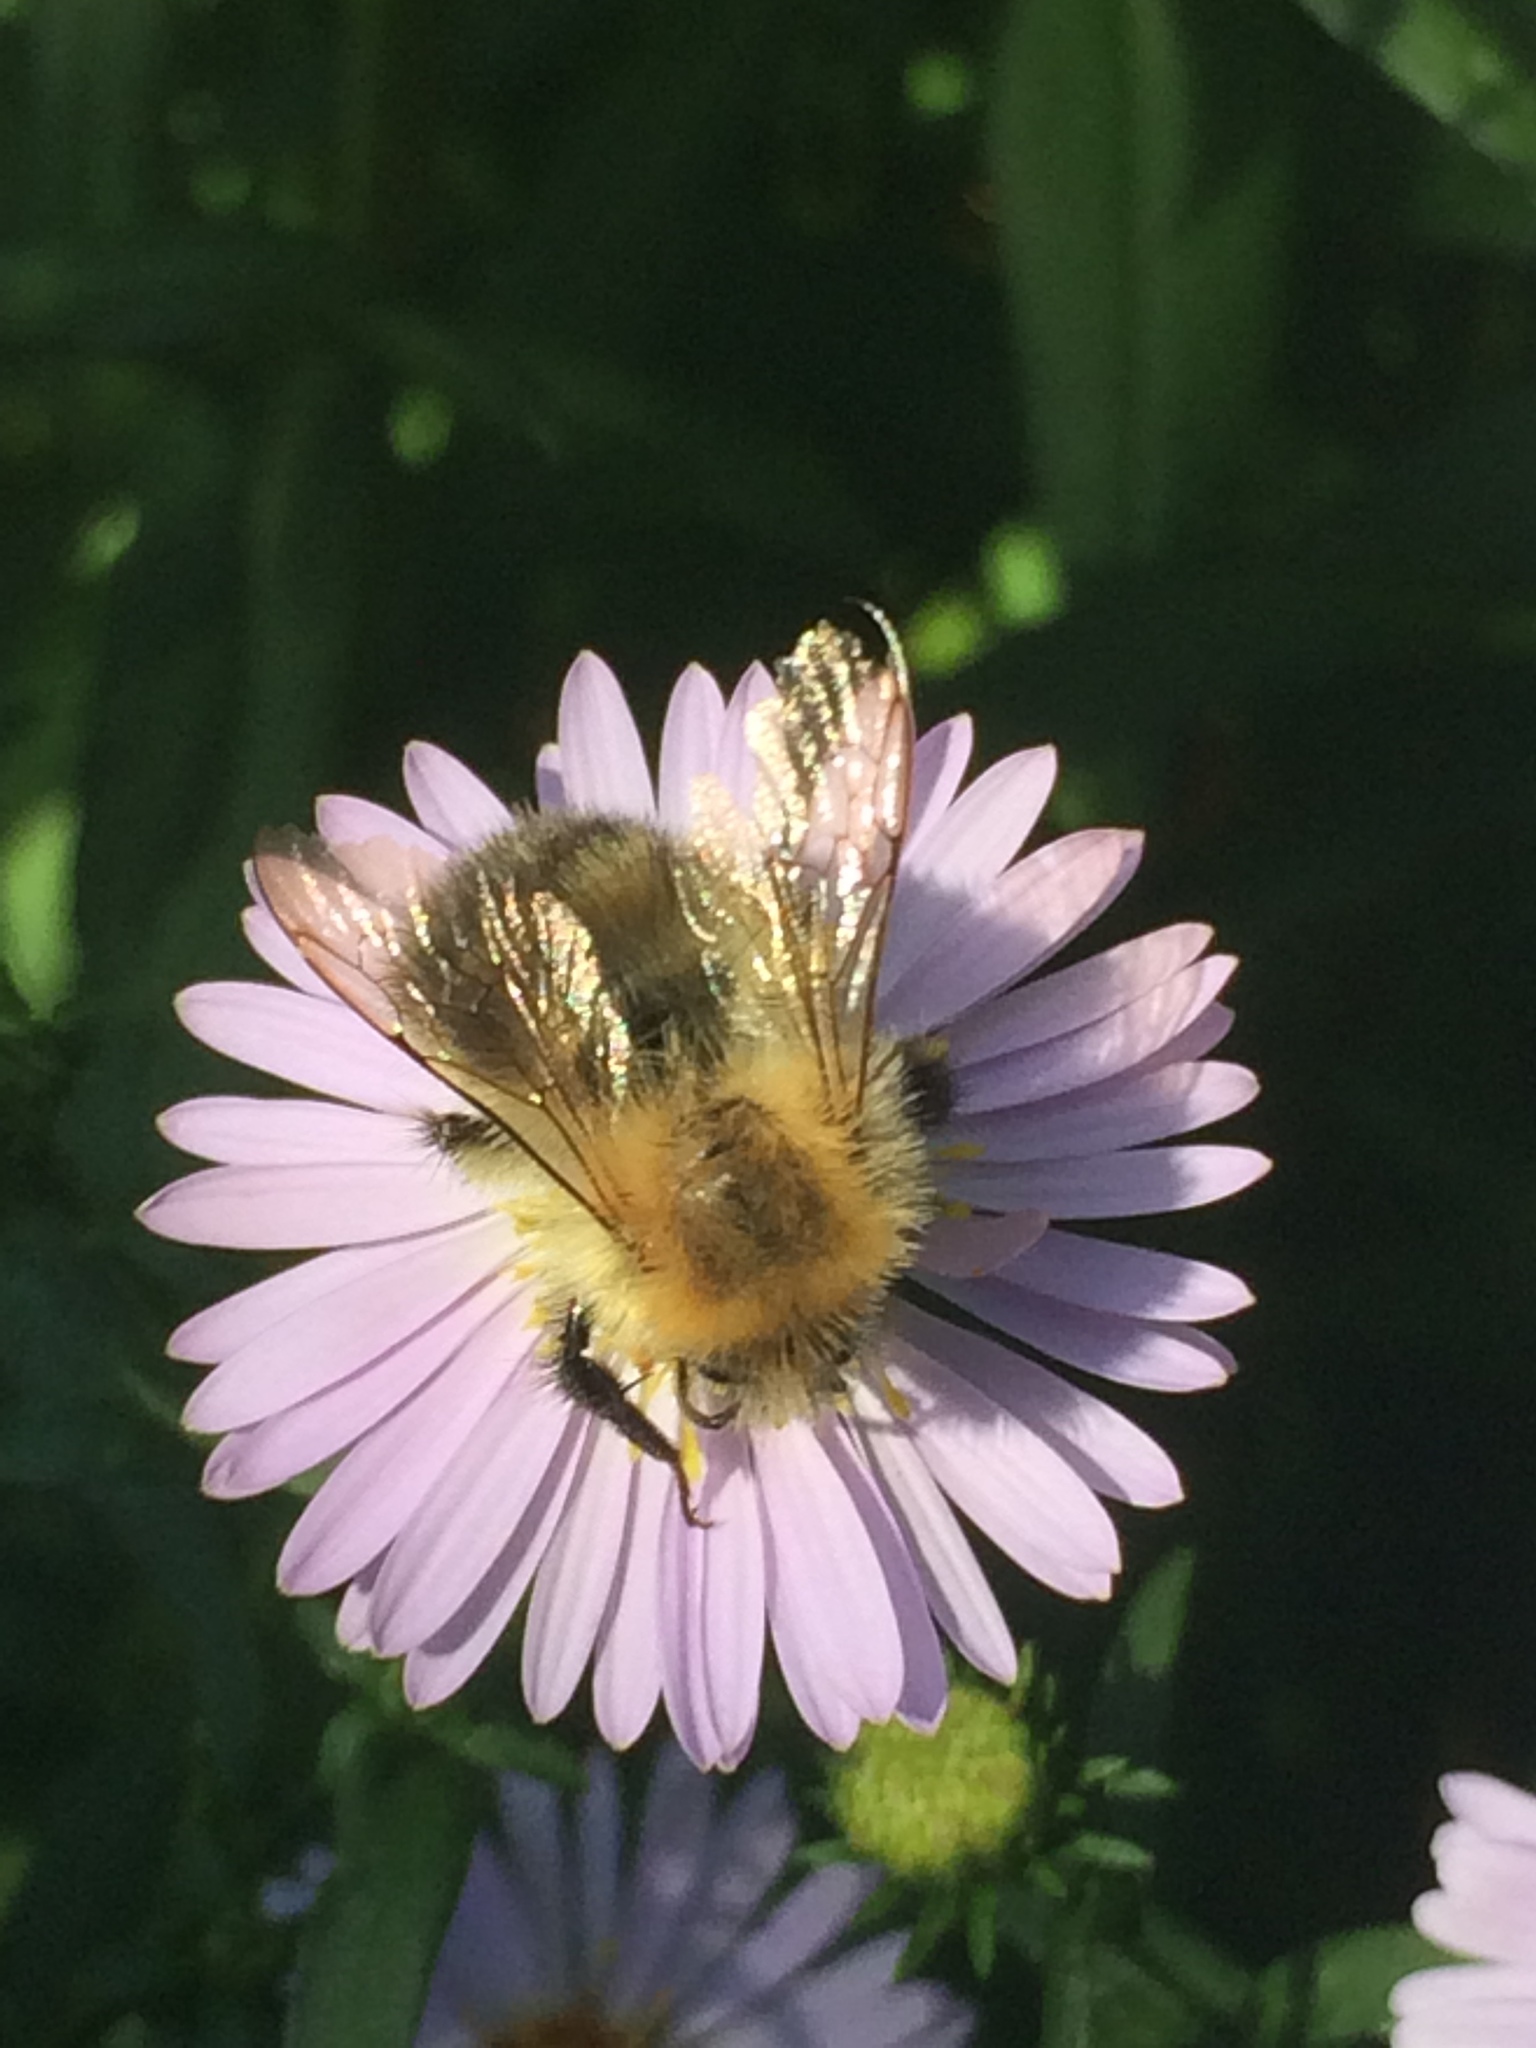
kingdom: Animalia
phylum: Arthropoda
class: Insecta
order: Hymenoptera
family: Apidae
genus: Bombus
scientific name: Bombus pascuorum
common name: Common carder bee
